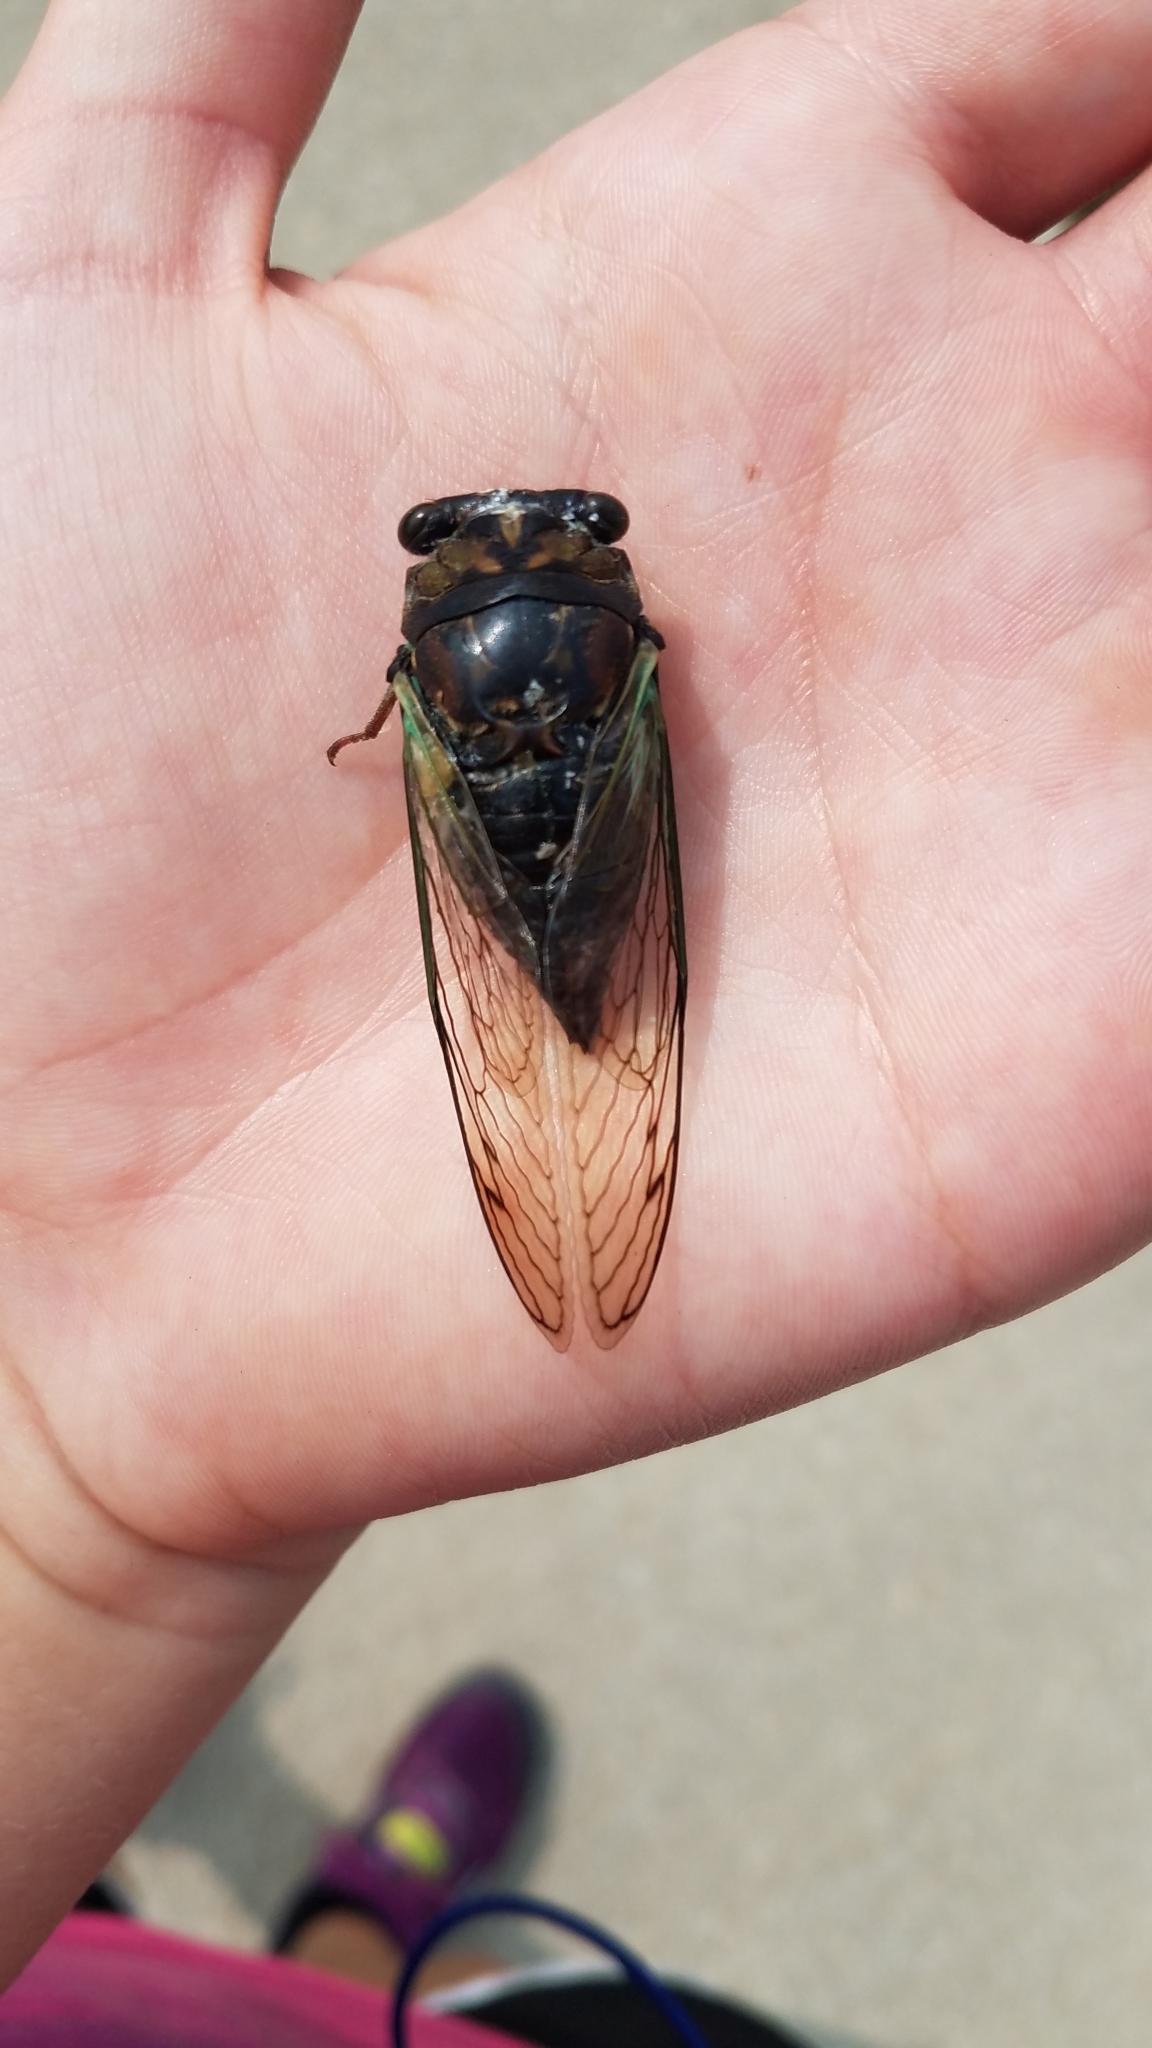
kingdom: Animalia
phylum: Arthropoda
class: Insecta
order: Hemiptera
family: Cicadidae
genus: Neotibicen
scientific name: Neotibicen lyricen
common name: Lyric cicada
